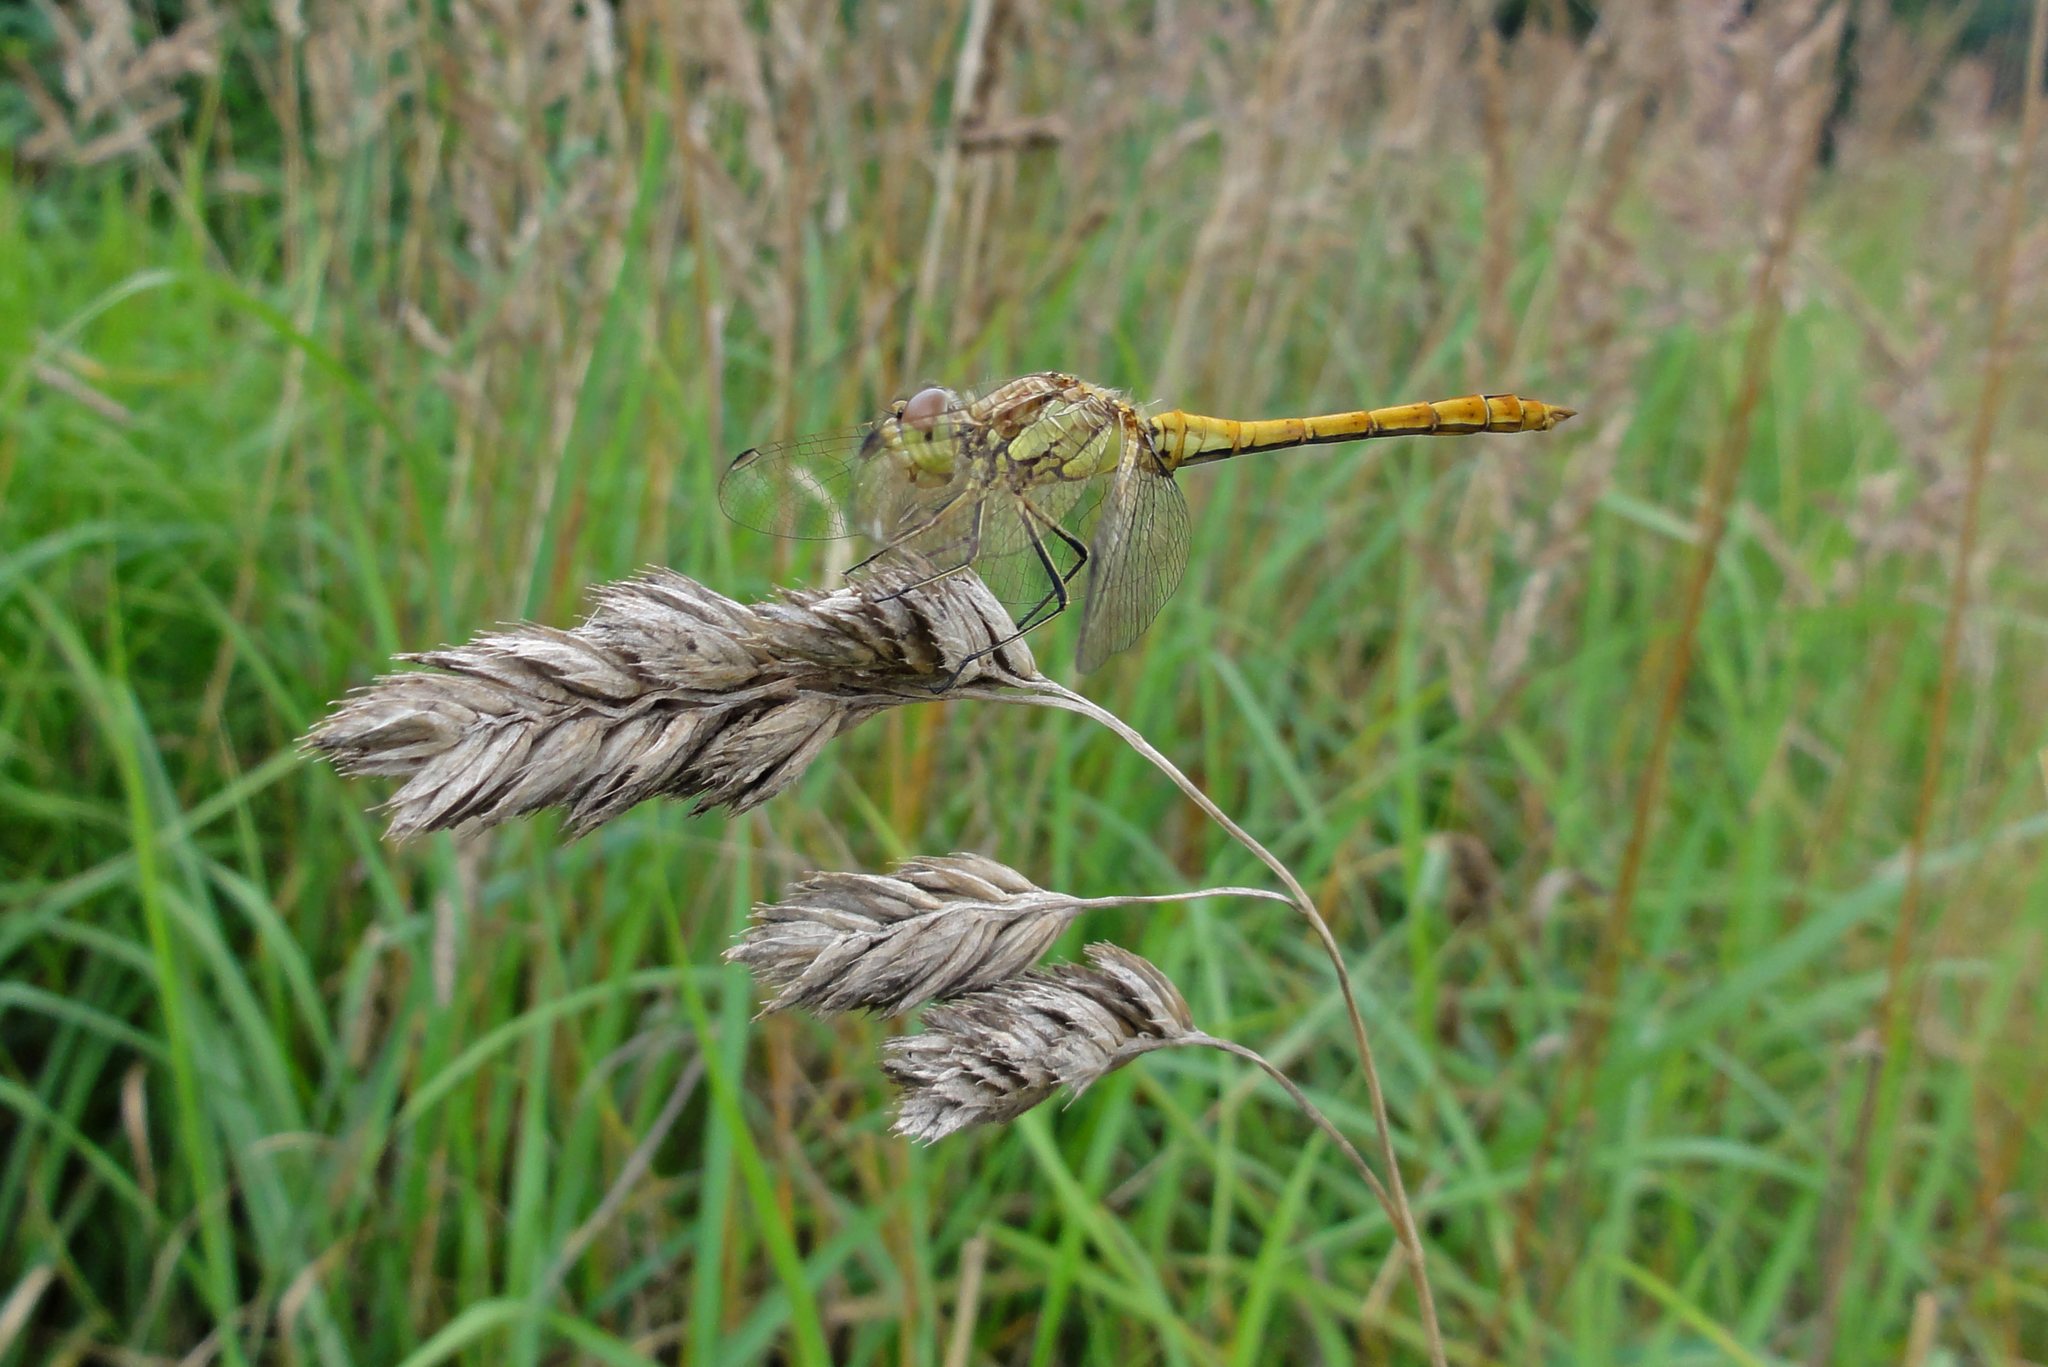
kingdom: Animalia
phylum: Arthropoda
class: Insecta
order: Odonata
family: Libellulidae
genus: Sympetrum
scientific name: Sympetrum vulgatum
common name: Vagrant darter
